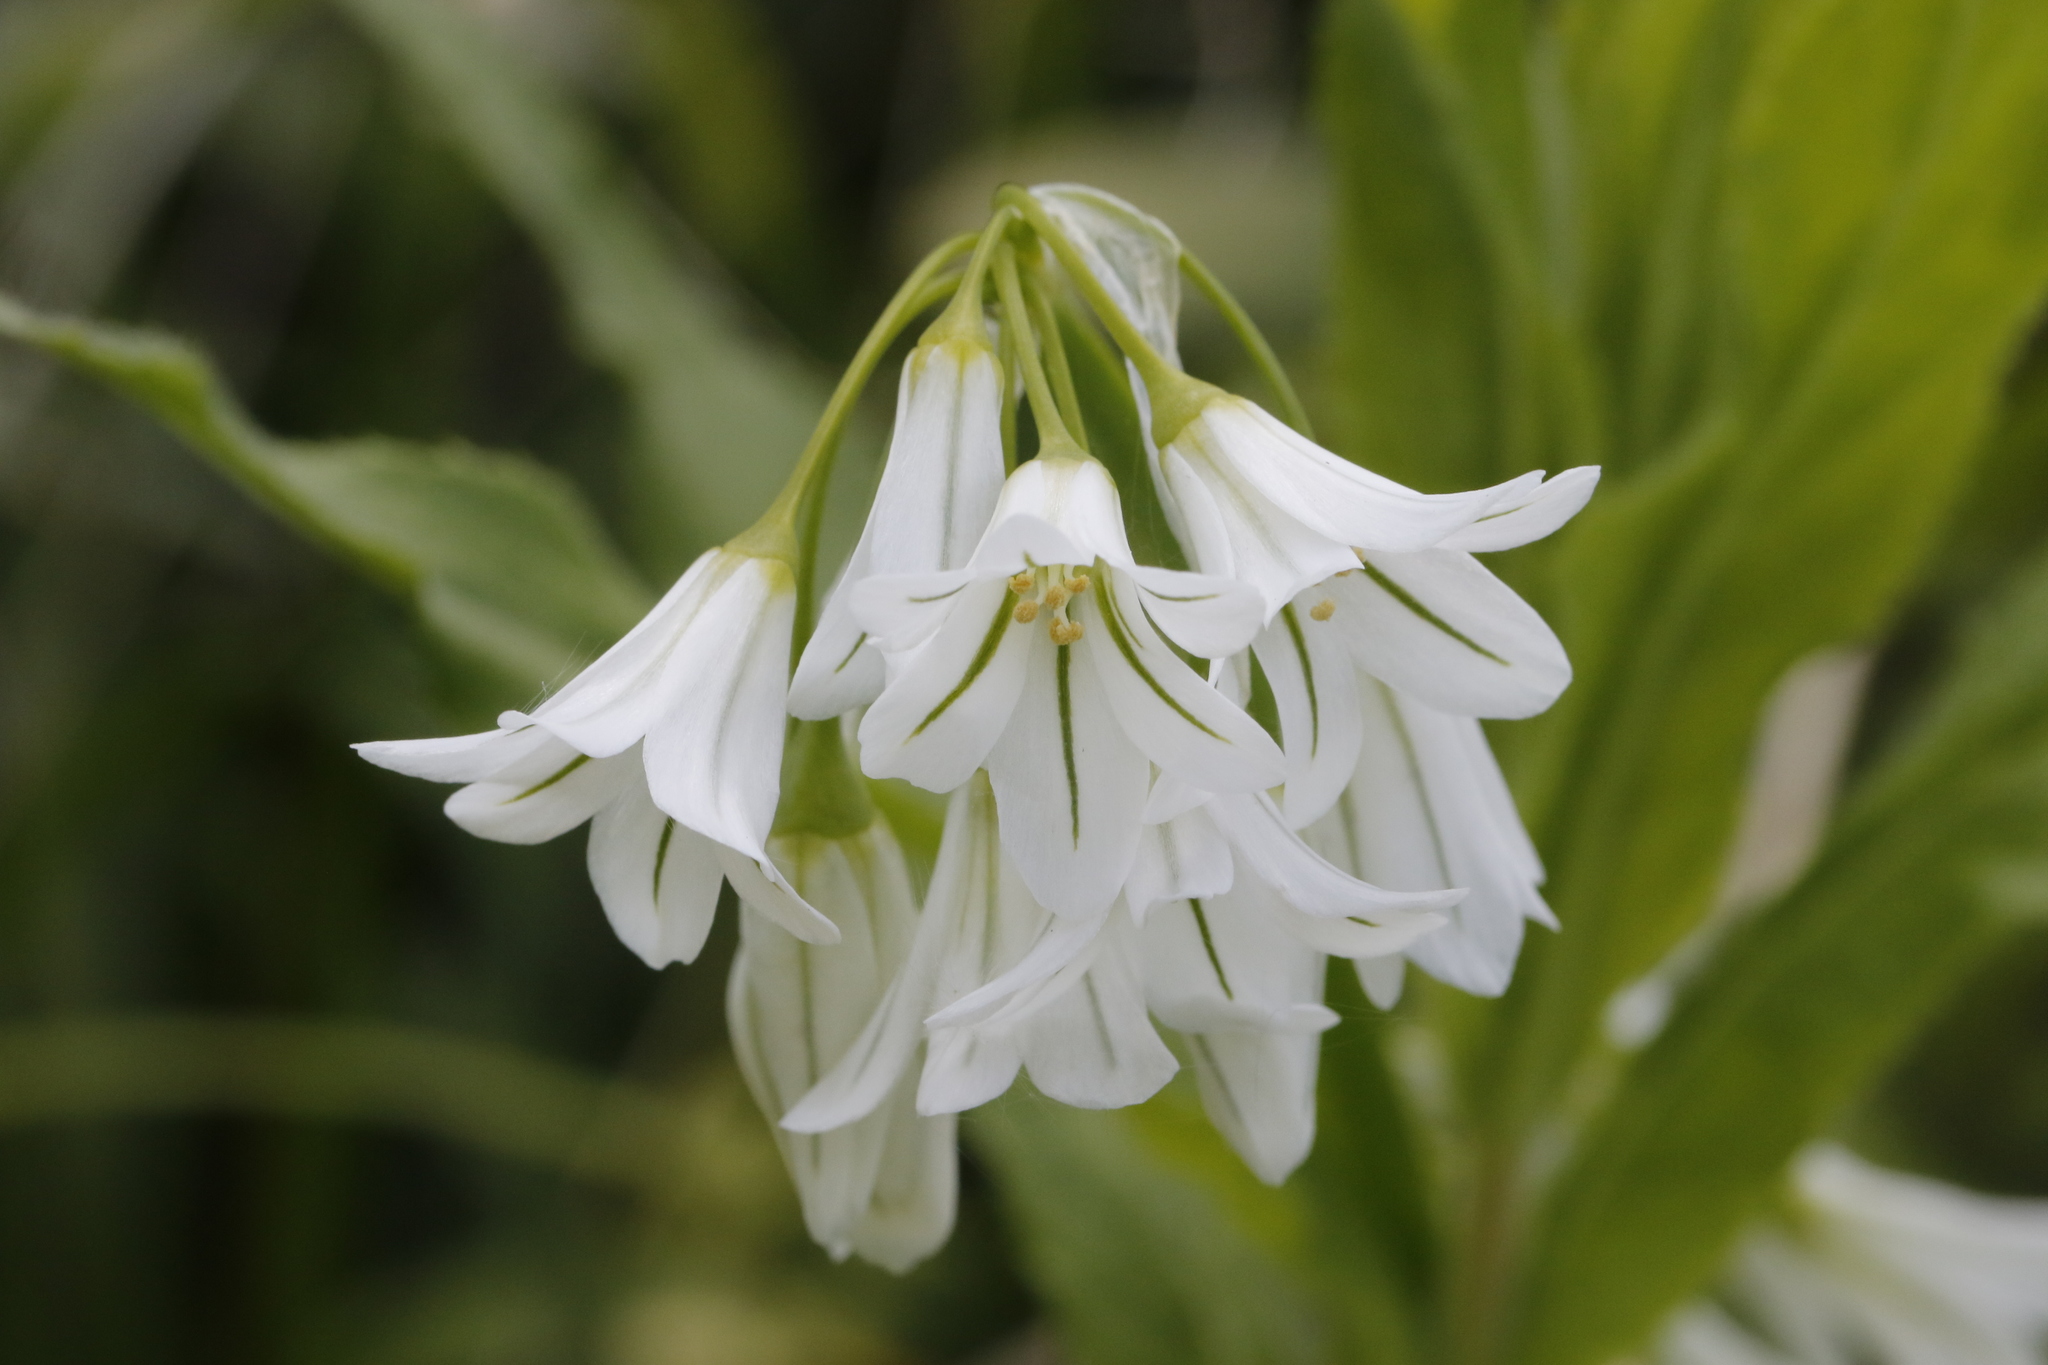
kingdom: Plantae
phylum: Tracheophyta
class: Liliopsida
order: Asparagales
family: Amaryllidaceae
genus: Allium
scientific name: Allium triquetrum
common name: Three-cornered garlic
